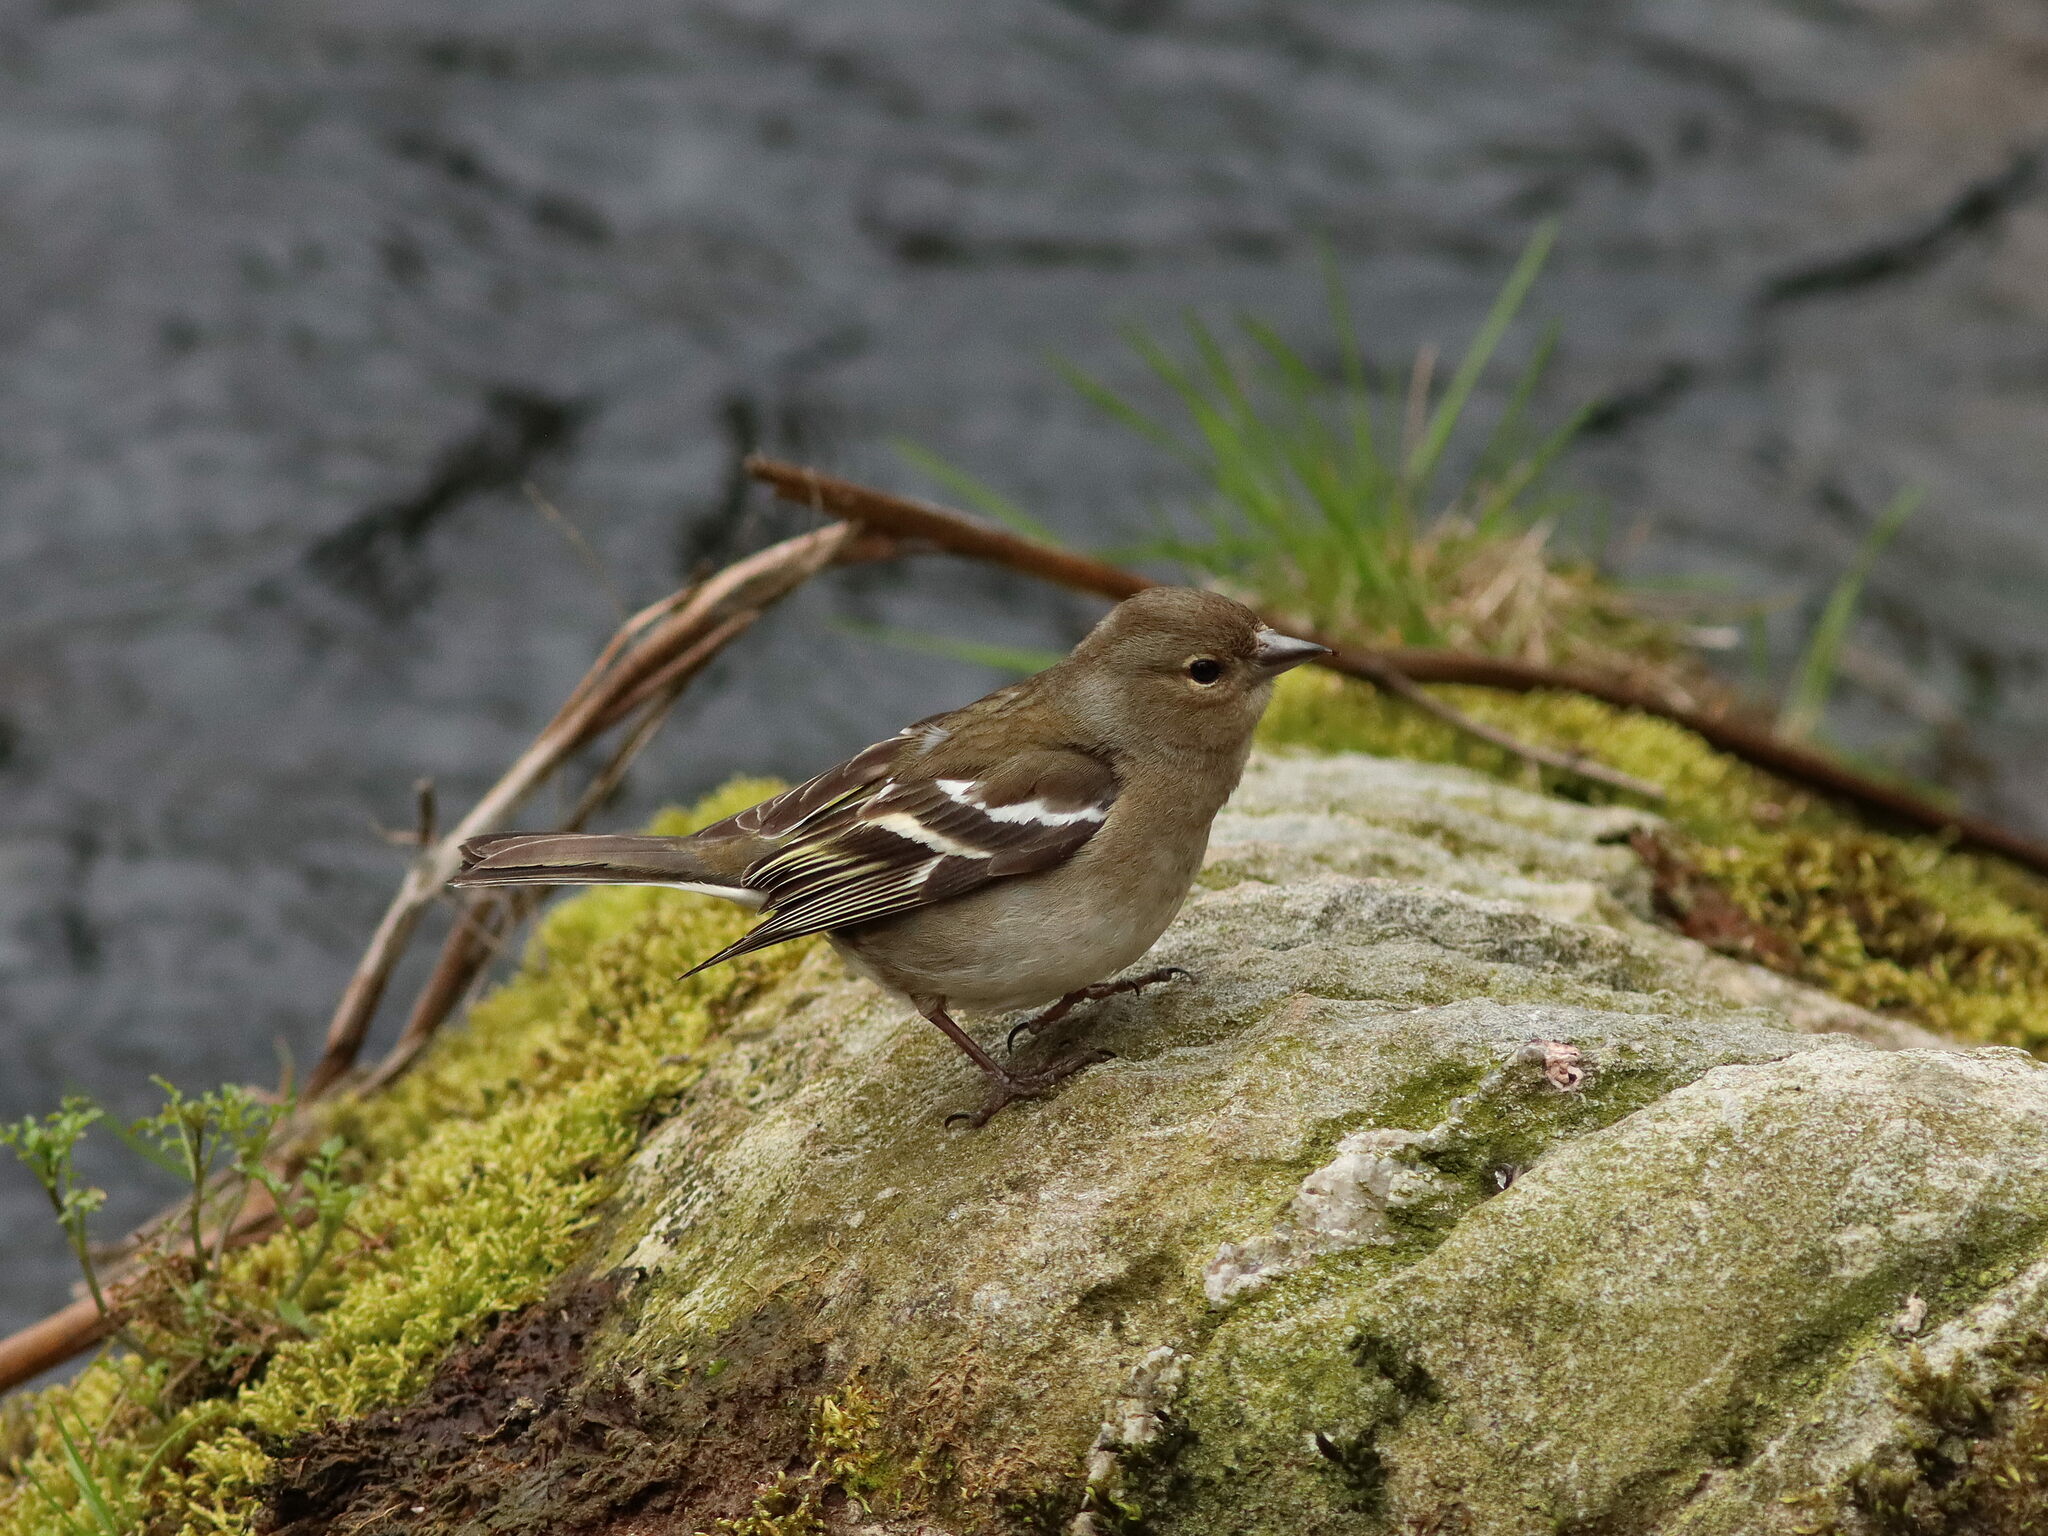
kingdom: Animalia
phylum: Chordata
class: Aves
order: Passeriformes
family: Fringillidae
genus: Fringilla
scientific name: Fringilla coelebs
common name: Common chaffinch
